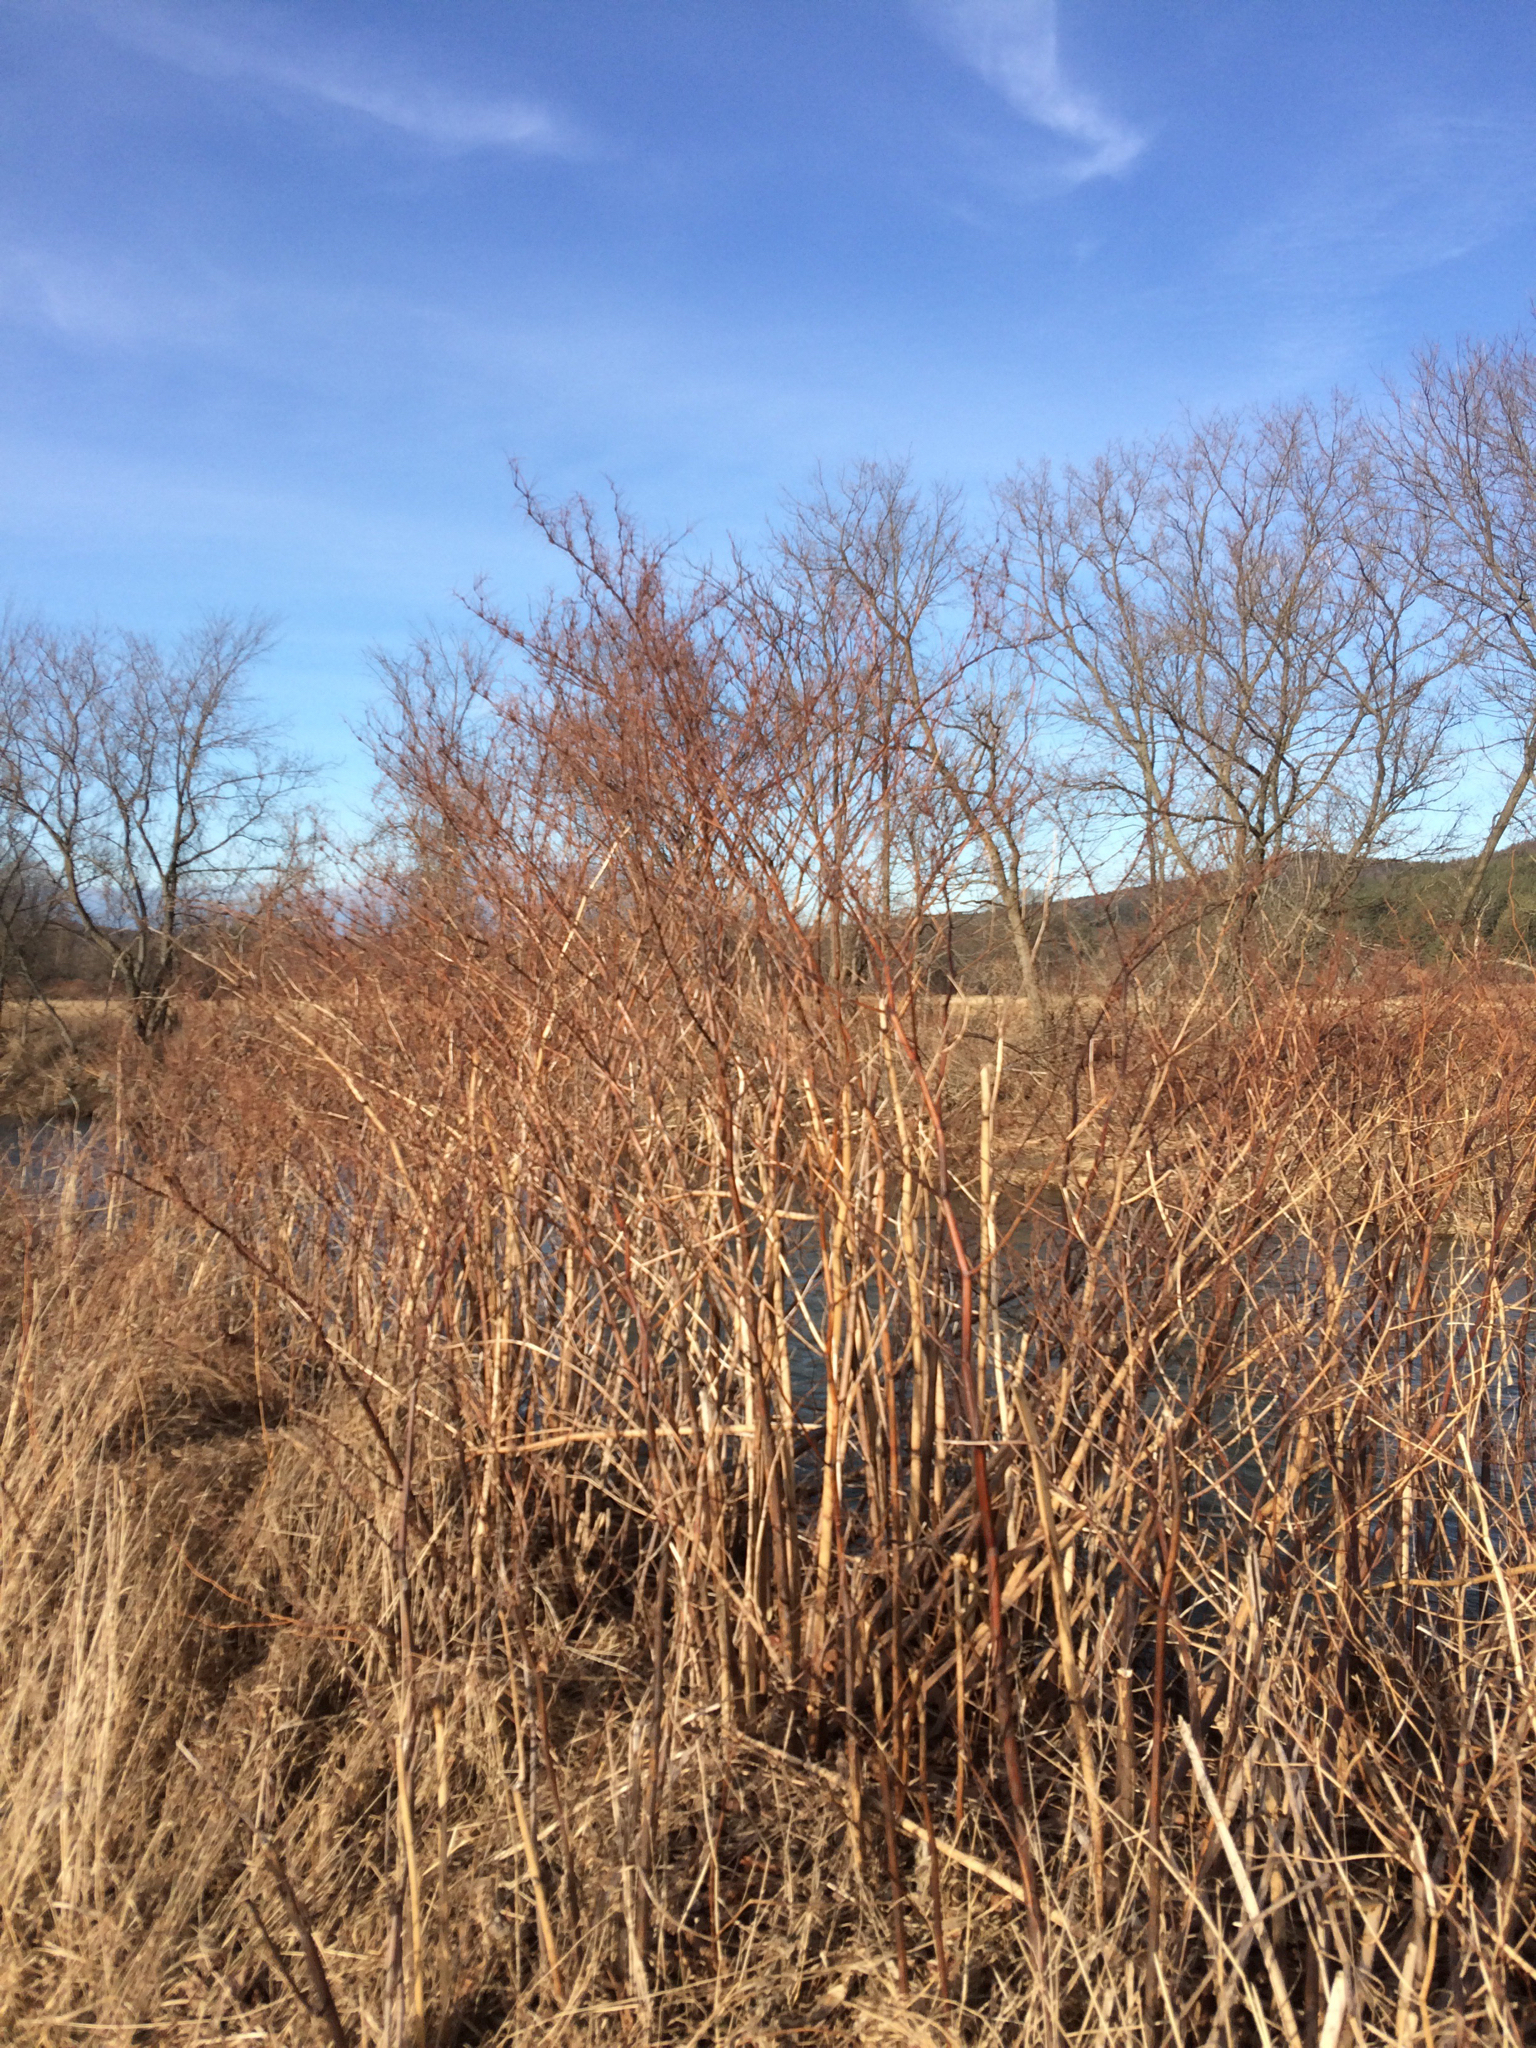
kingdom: Plantae
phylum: Tracheophyta
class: Magnoliopsida
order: Caryophyllales
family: Polygonaceae
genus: Reynoutria
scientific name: Reynoutria japonica
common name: Japanese knotweed
